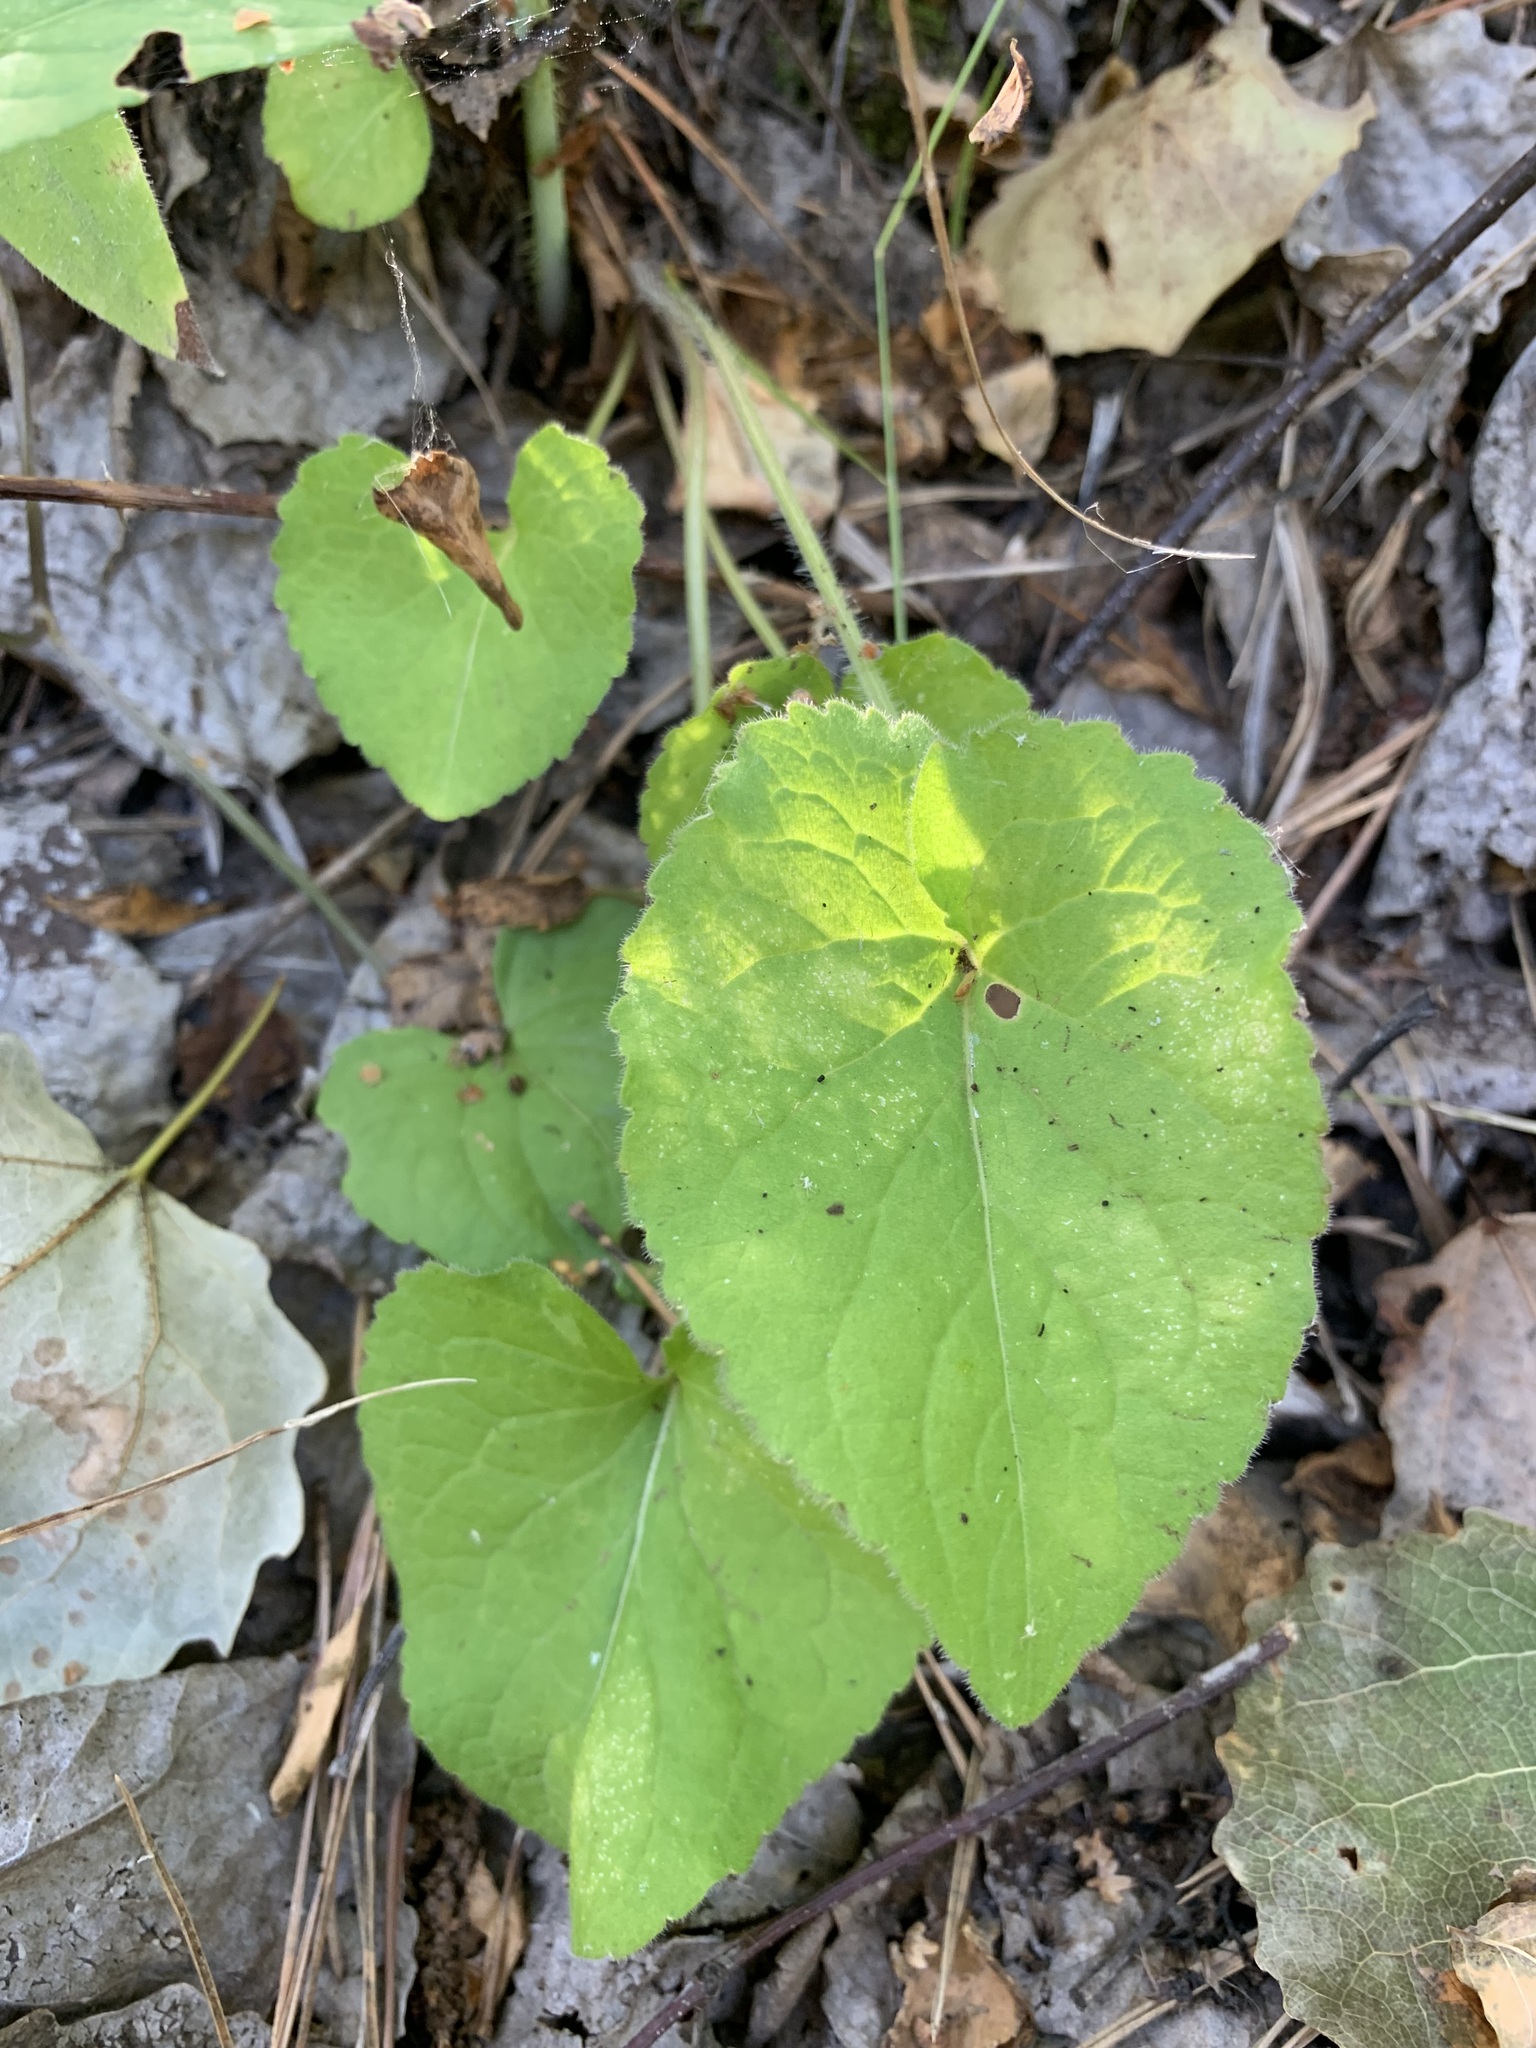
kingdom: Plantae
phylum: Tracheophyta
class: Magnoliopsida
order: Malpighiales
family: Violaceae
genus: Viola
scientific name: Viola hirta
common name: Hairy violet
